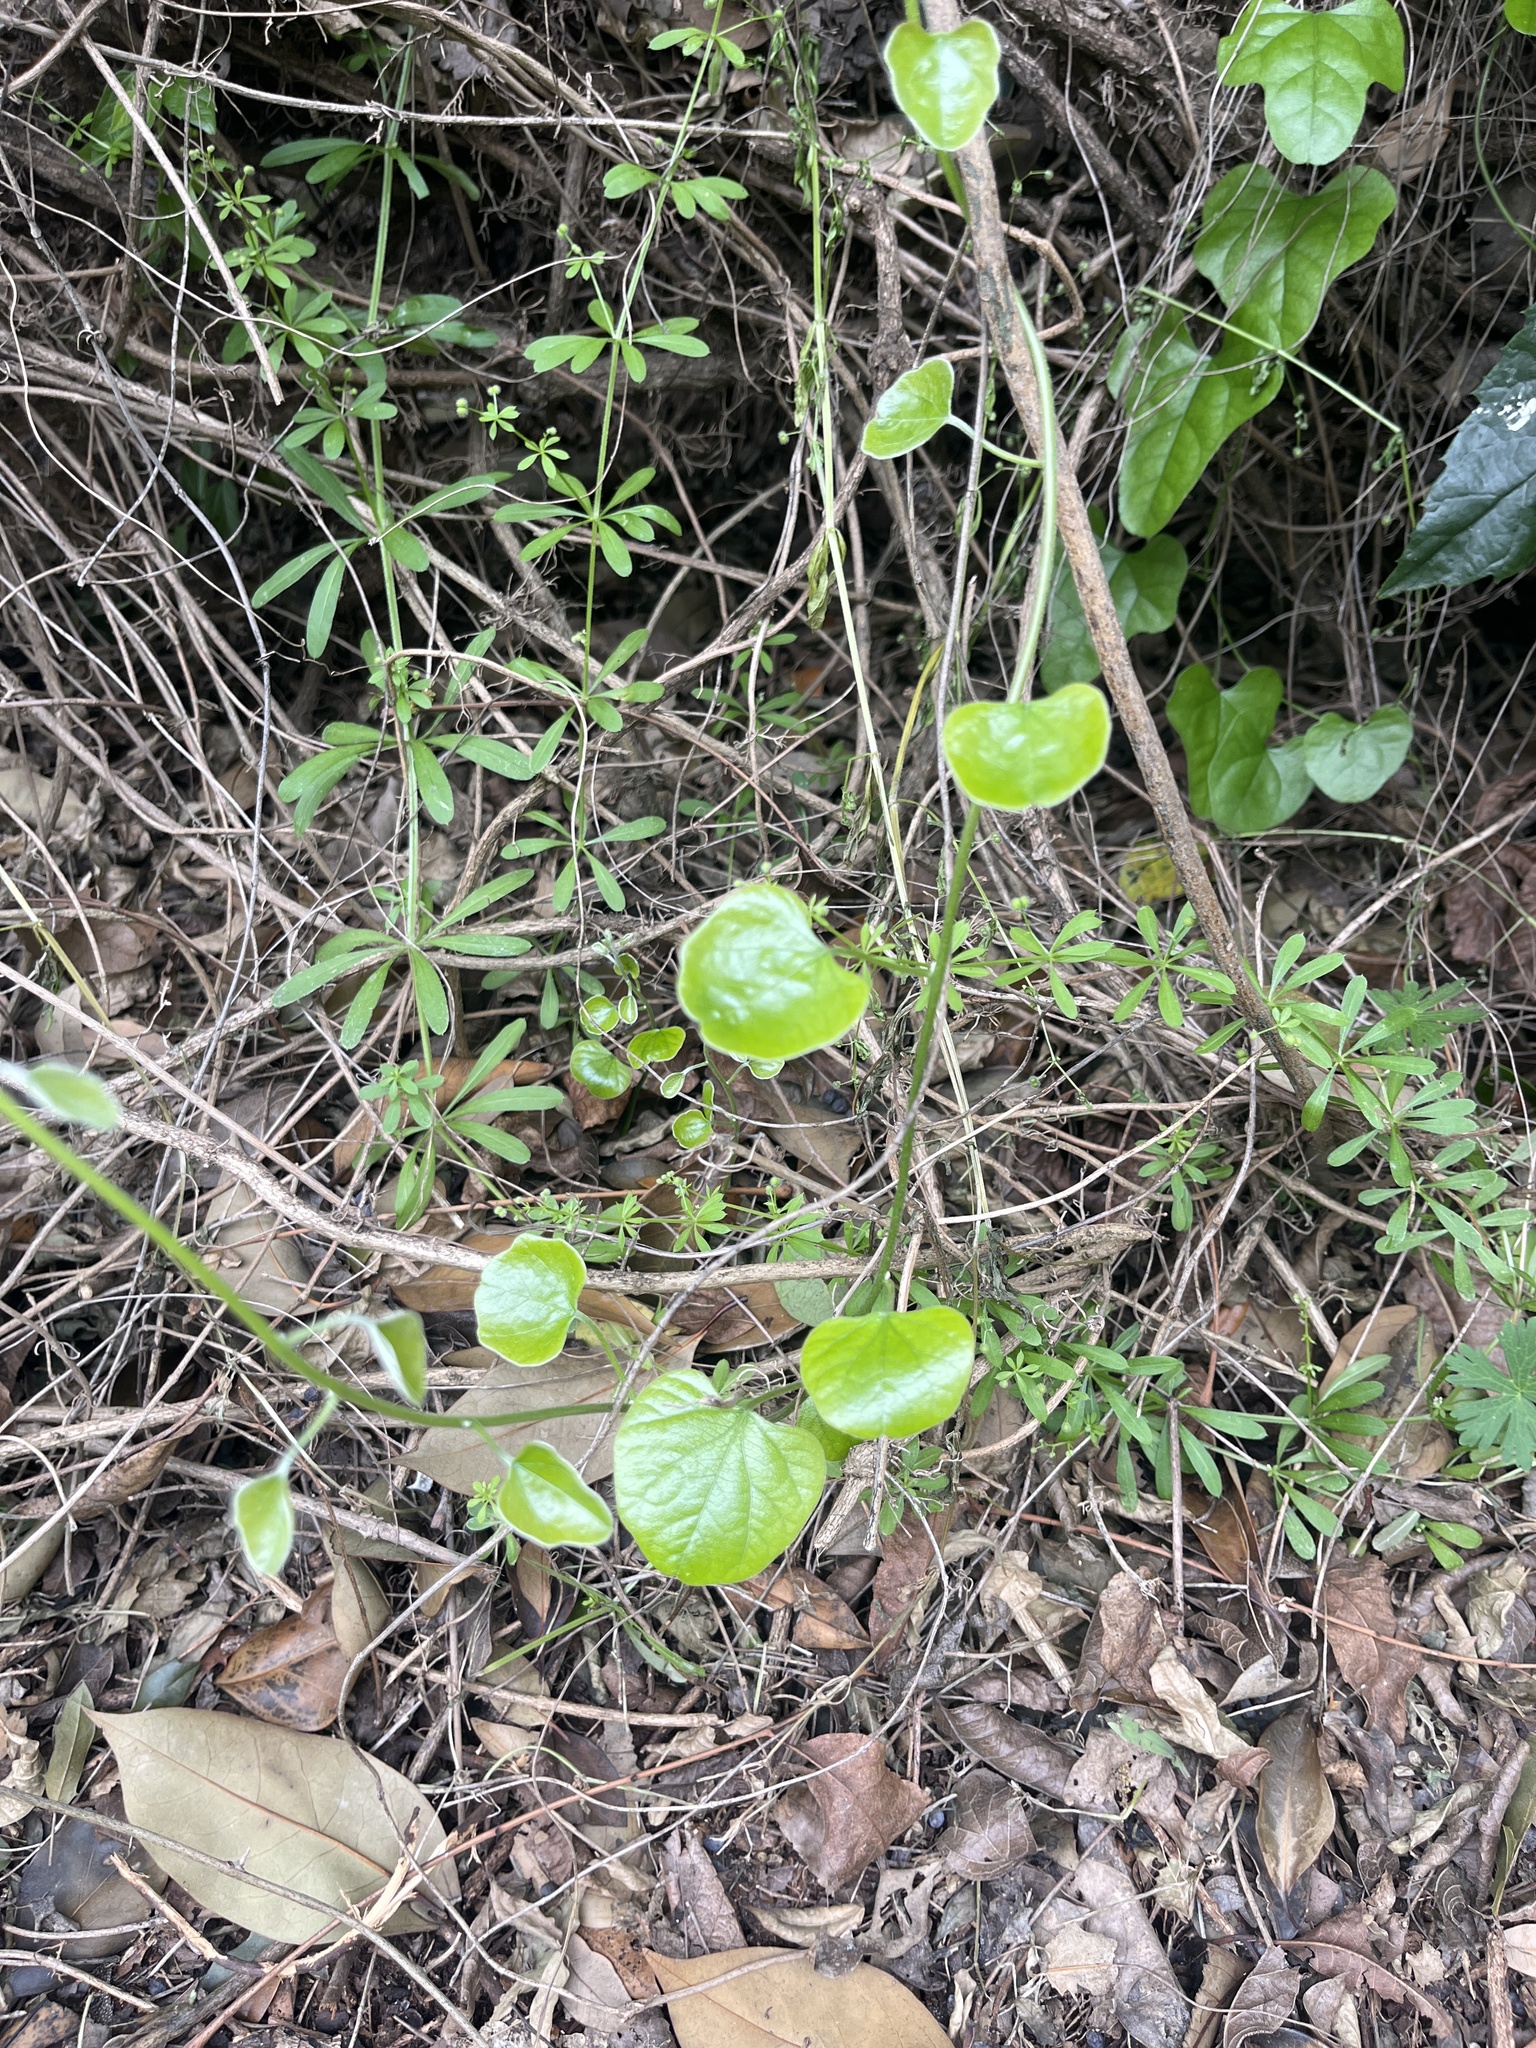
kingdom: Plantae
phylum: Tracheophyta
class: Magnoliopsida
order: Ranunculales
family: Menispermaceae
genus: Cocculus
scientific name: Cocculus carolinus
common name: Carolina moonseed
